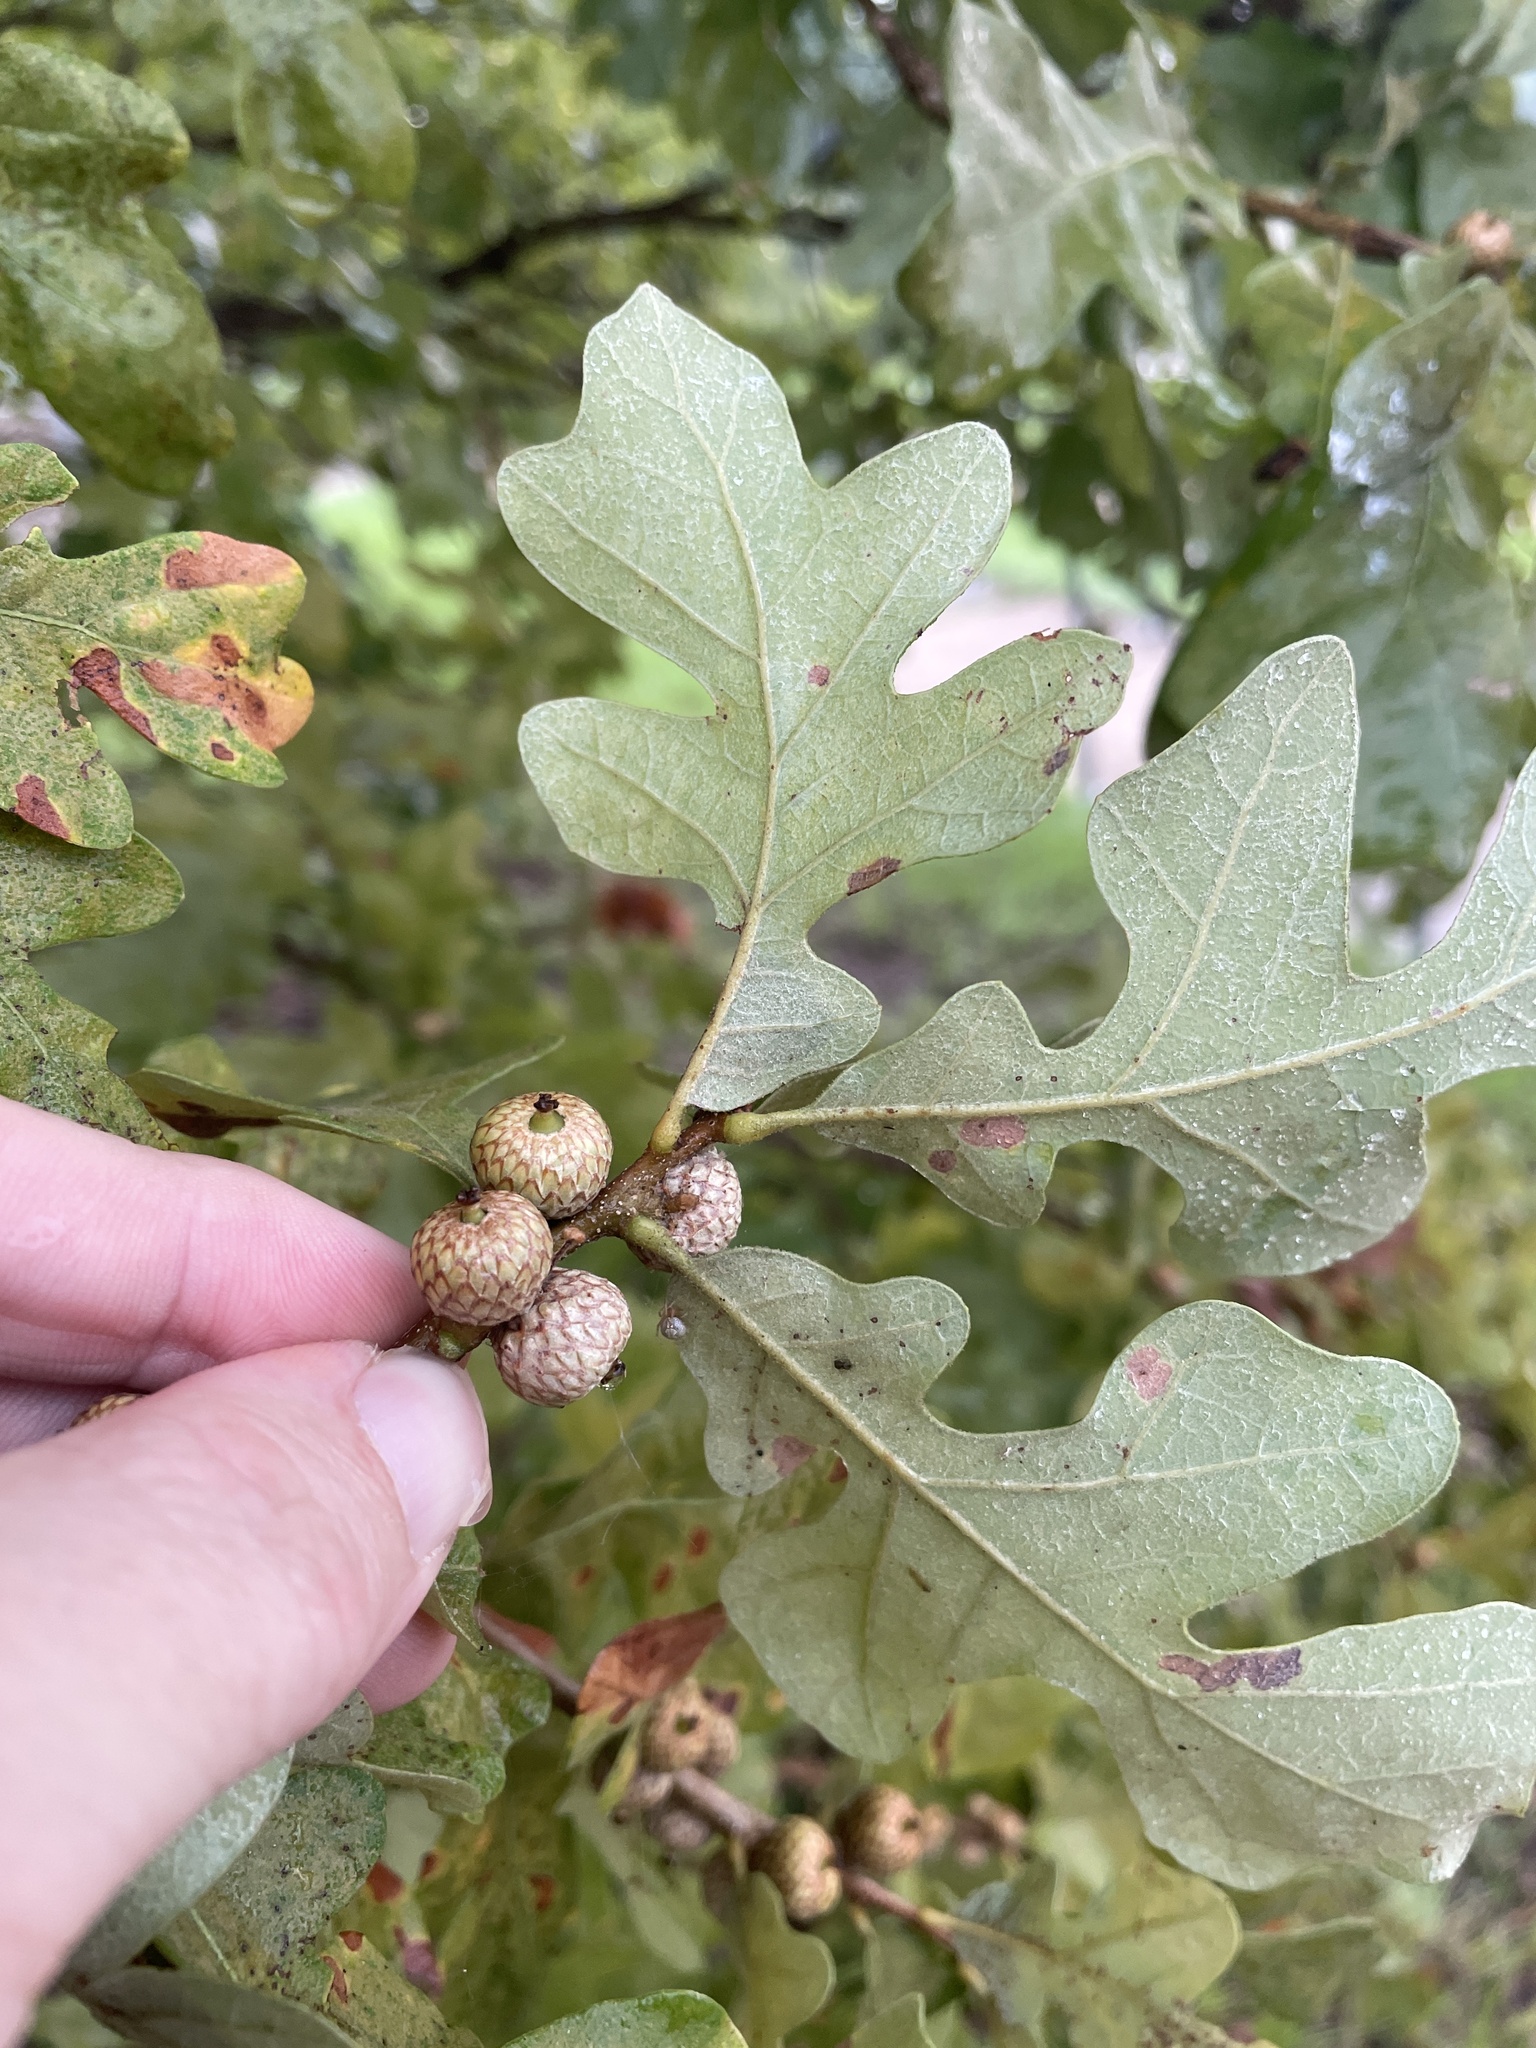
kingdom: Plantae
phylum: Tracheophyta
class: Magnoliopsida
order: Fagales
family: Fagaceae
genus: Quercus
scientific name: Quercus stellata
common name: Post oak
